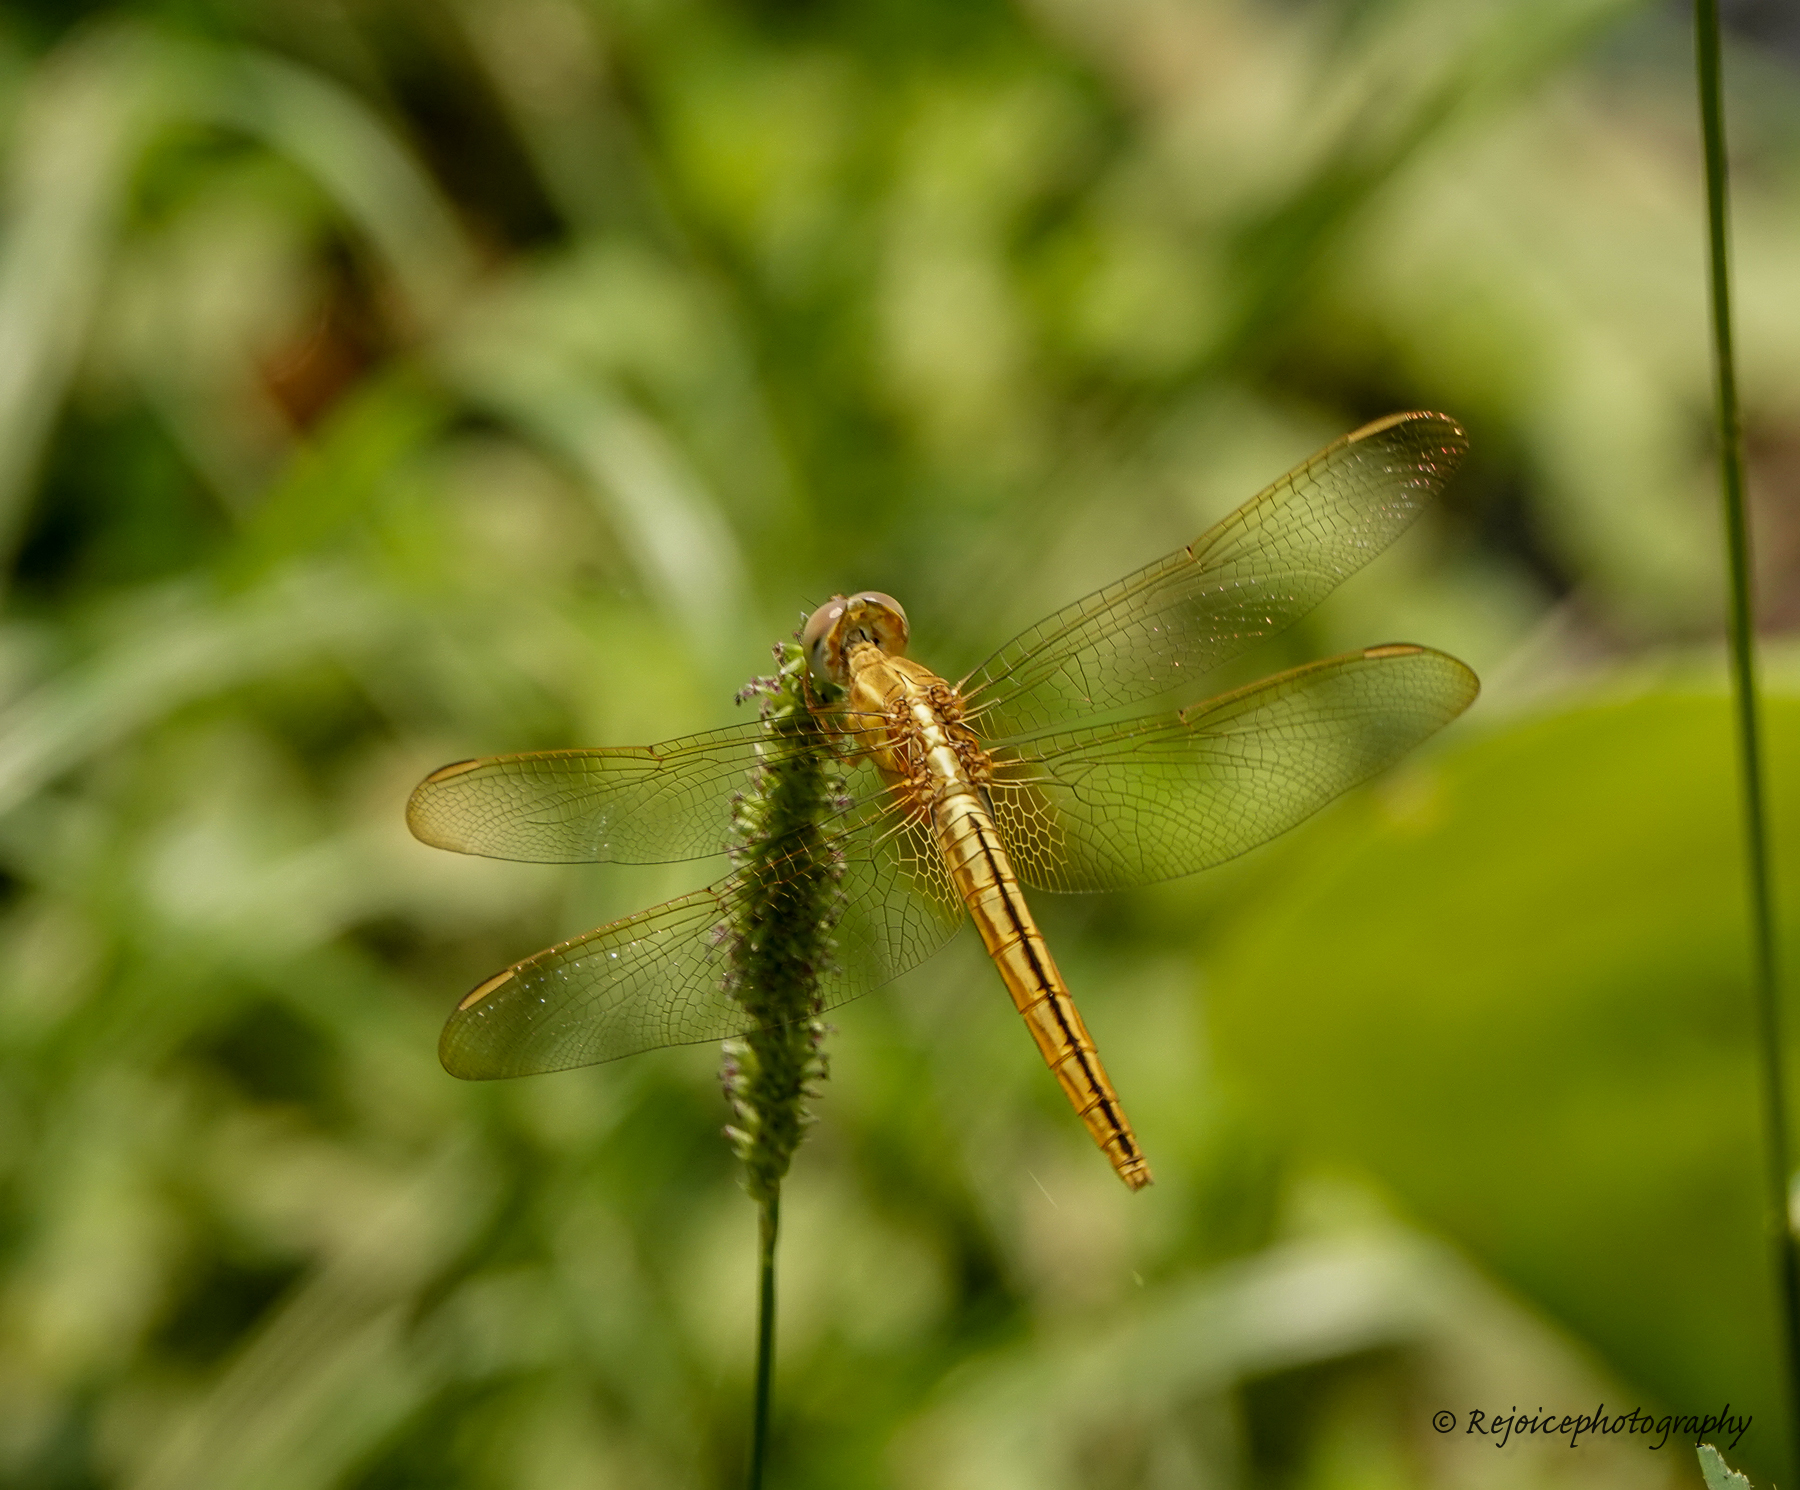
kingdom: Animalia
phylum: Arthropoda
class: Insecta
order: Odonata
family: Libellulidae
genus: Crocothemis
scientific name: Crocothemis servilia
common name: Scarlet skimmer
